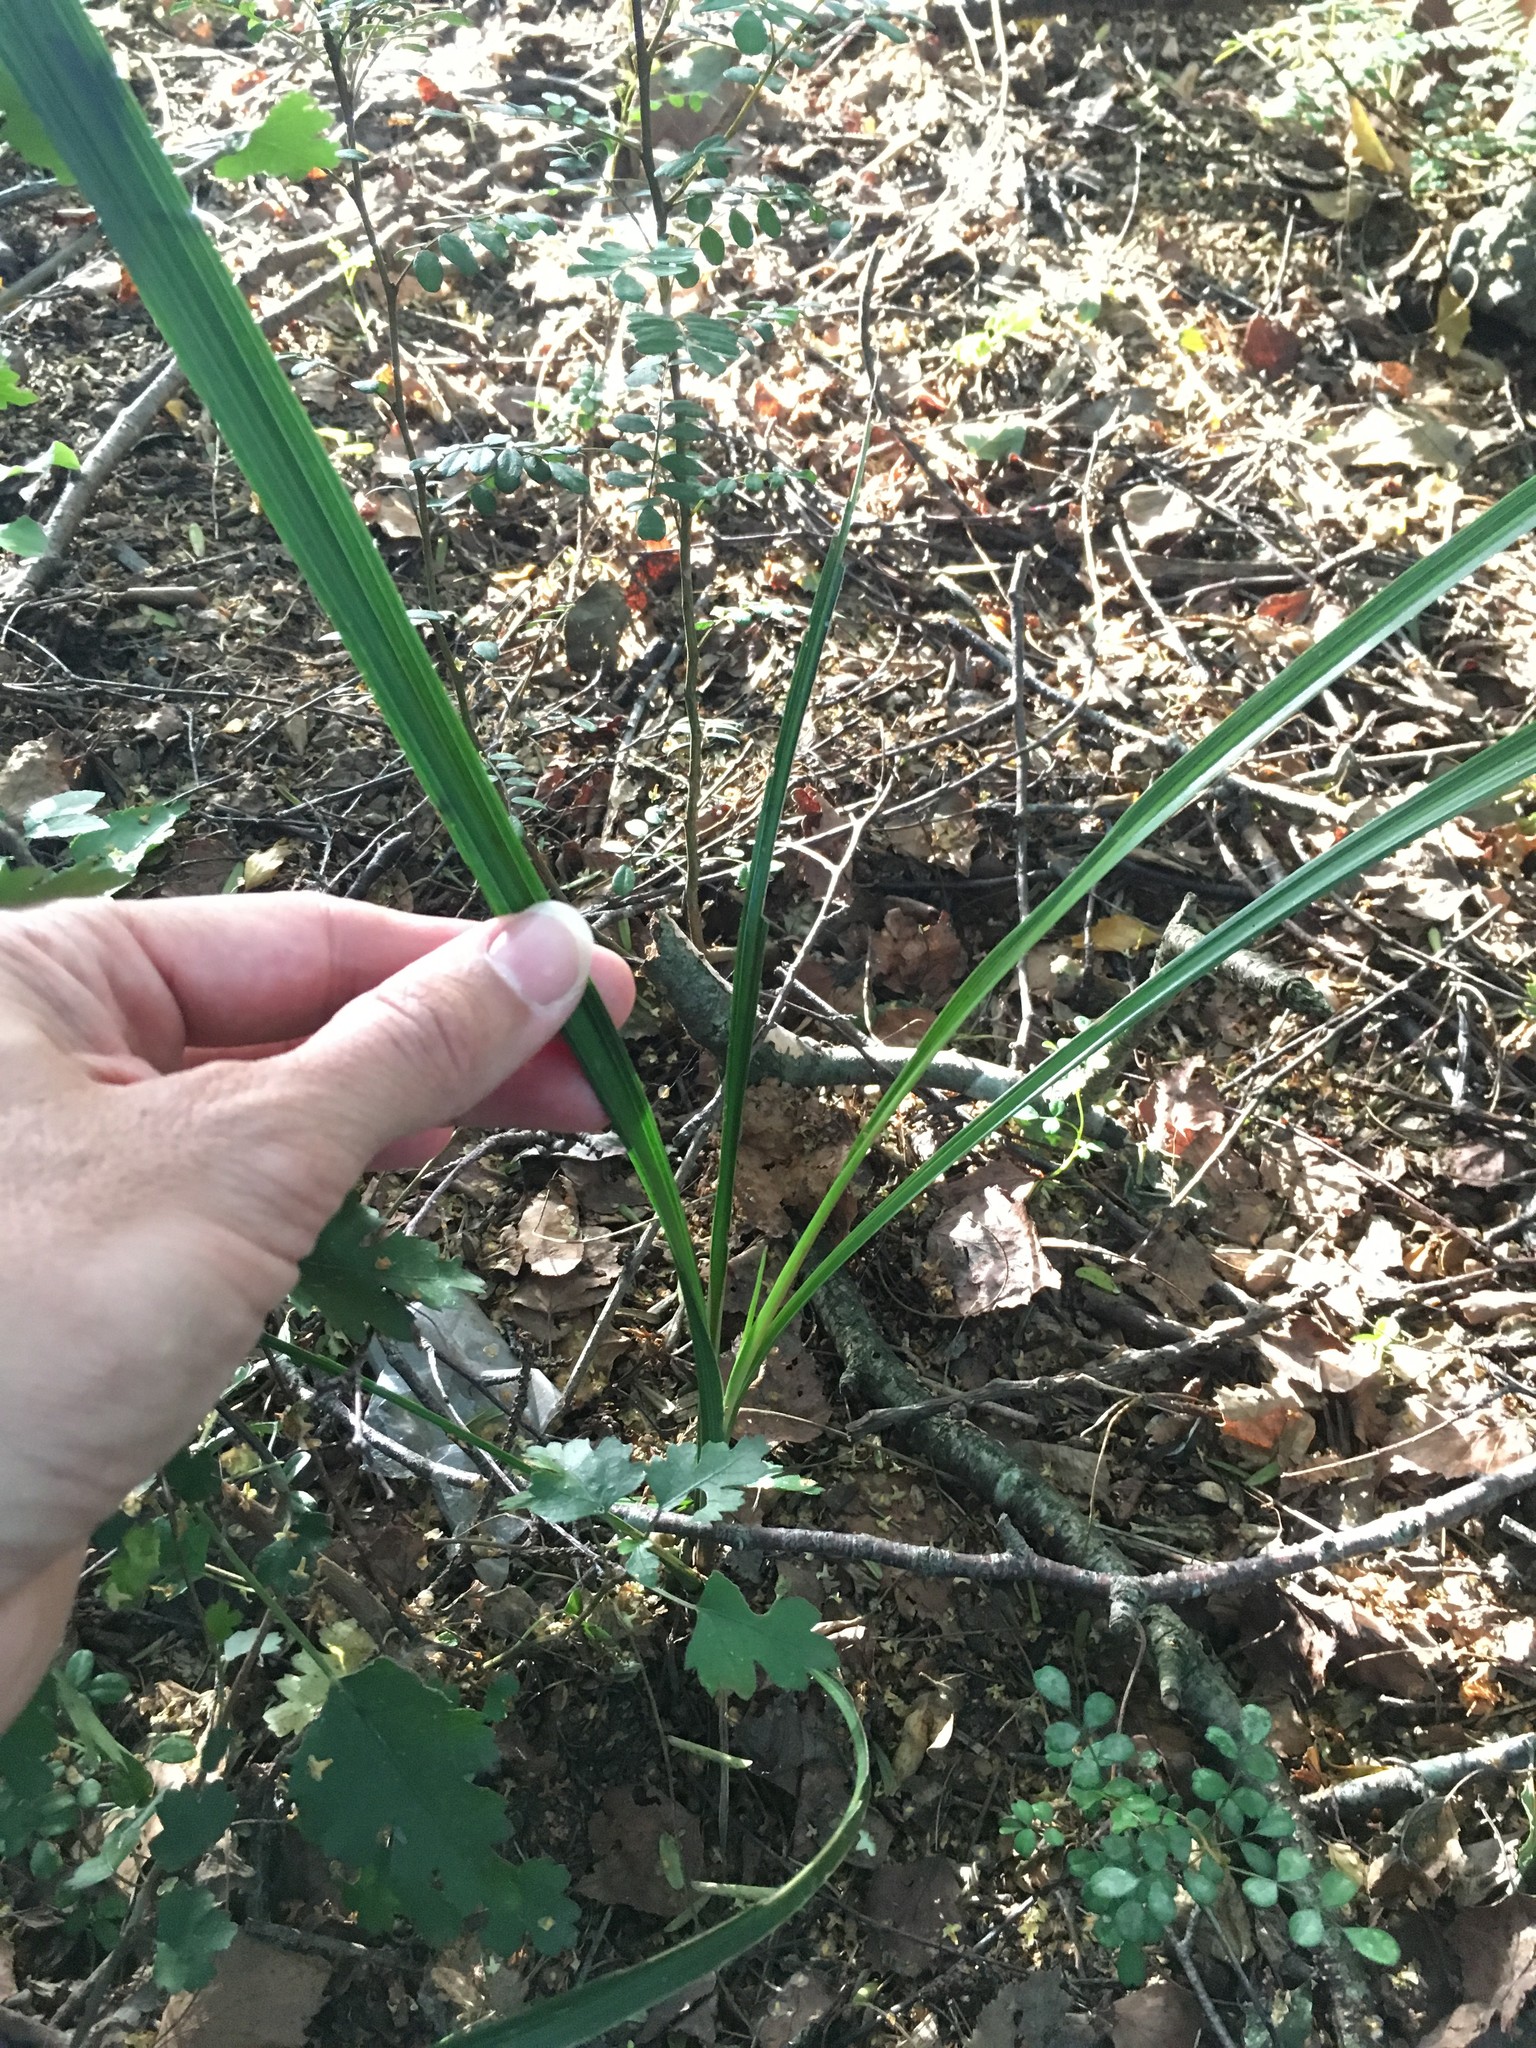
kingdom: Plantae
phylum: Tracheophyta
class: Liliopsida
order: Asparagales
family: Asparagaceae
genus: Cordyline
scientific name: Cordyline australis
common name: Cabbage-palm
